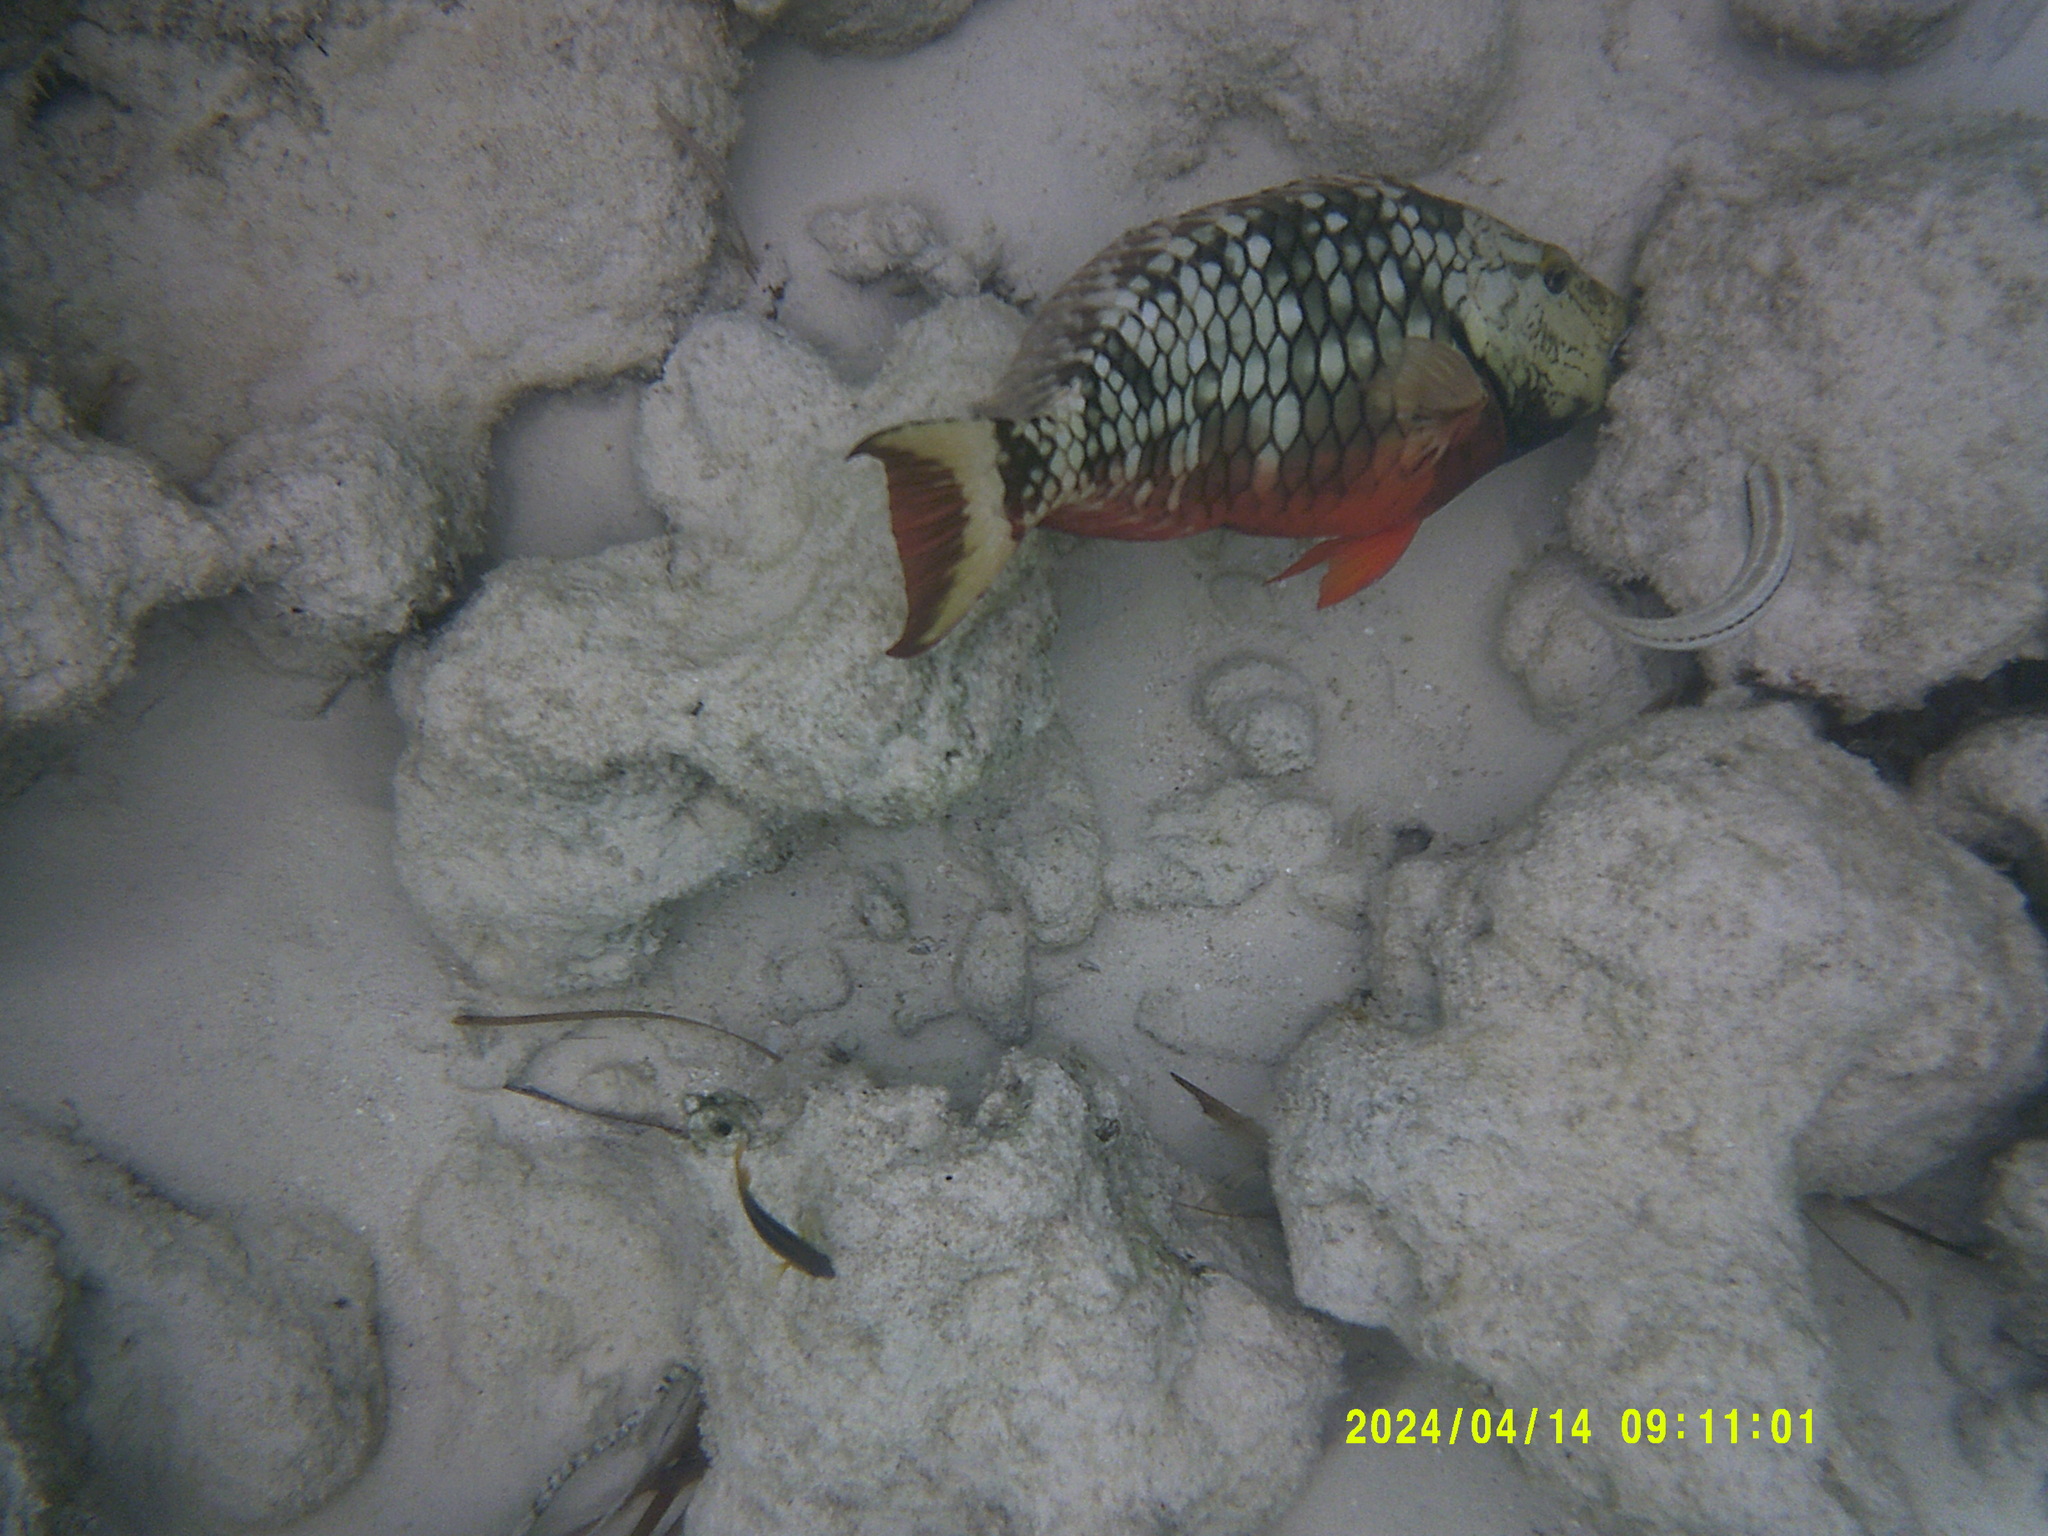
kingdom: Animalia
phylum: Chordata
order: Perciformes
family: Scaridae
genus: Sparisoma
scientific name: Sparisoma viride
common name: Stoplight parrotfish
